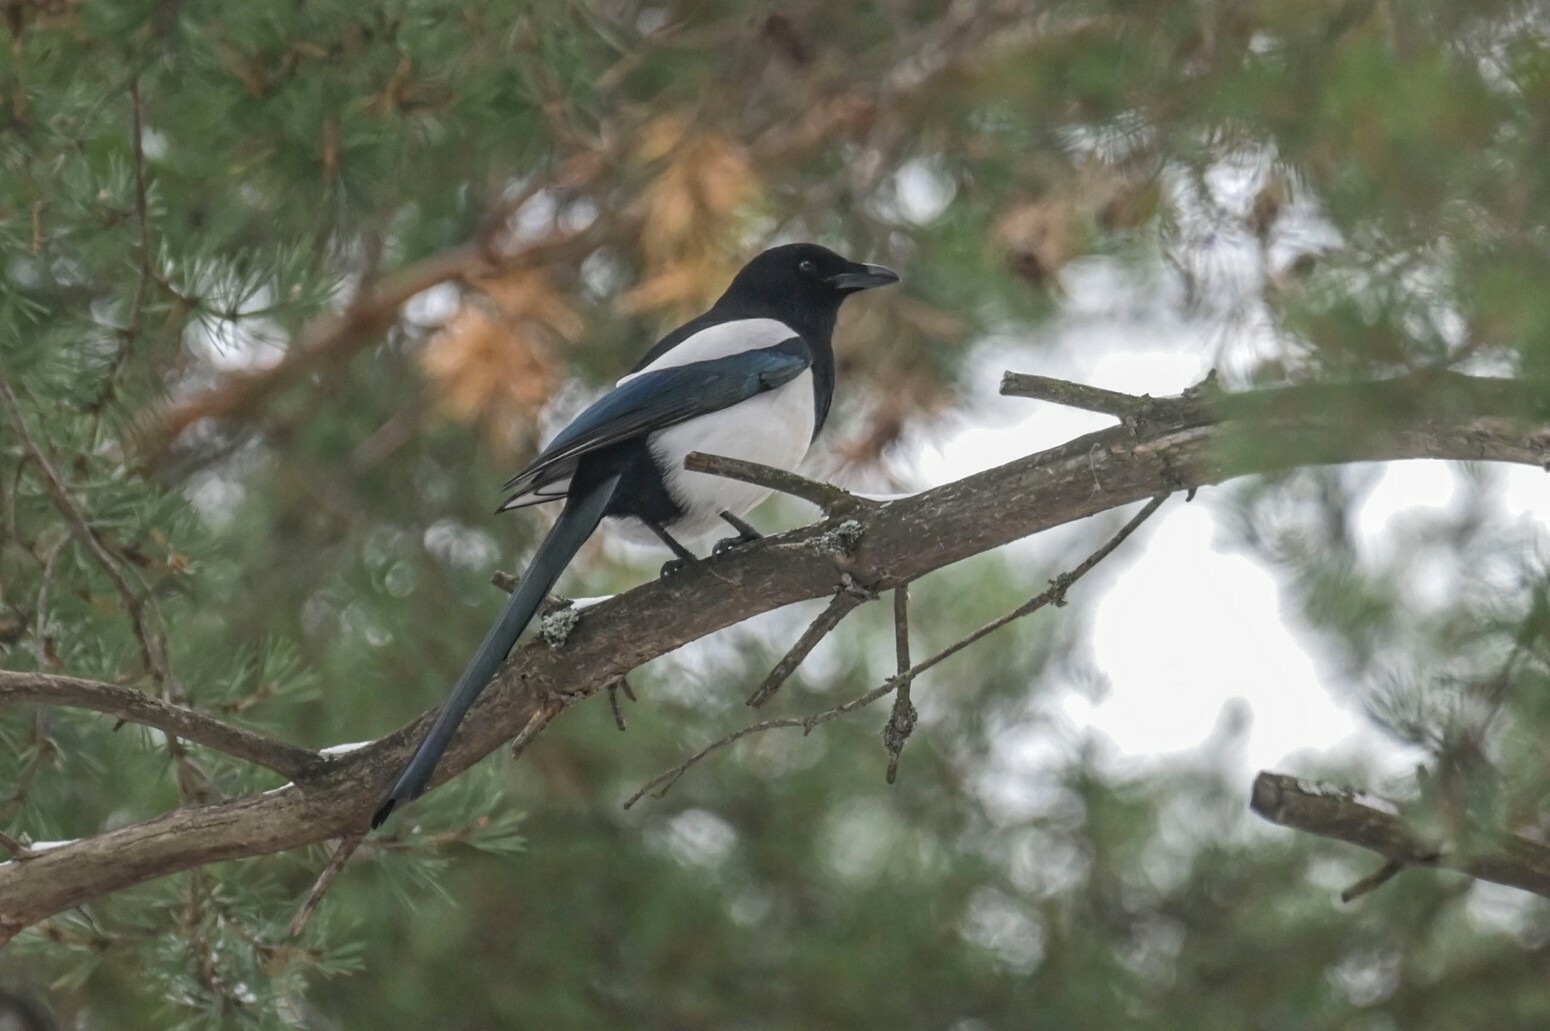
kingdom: Animalia
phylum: Chordata
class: Aves
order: Passeriformes
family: Corvidae
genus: Pica
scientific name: Pica pica
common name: Eurasian magpie
